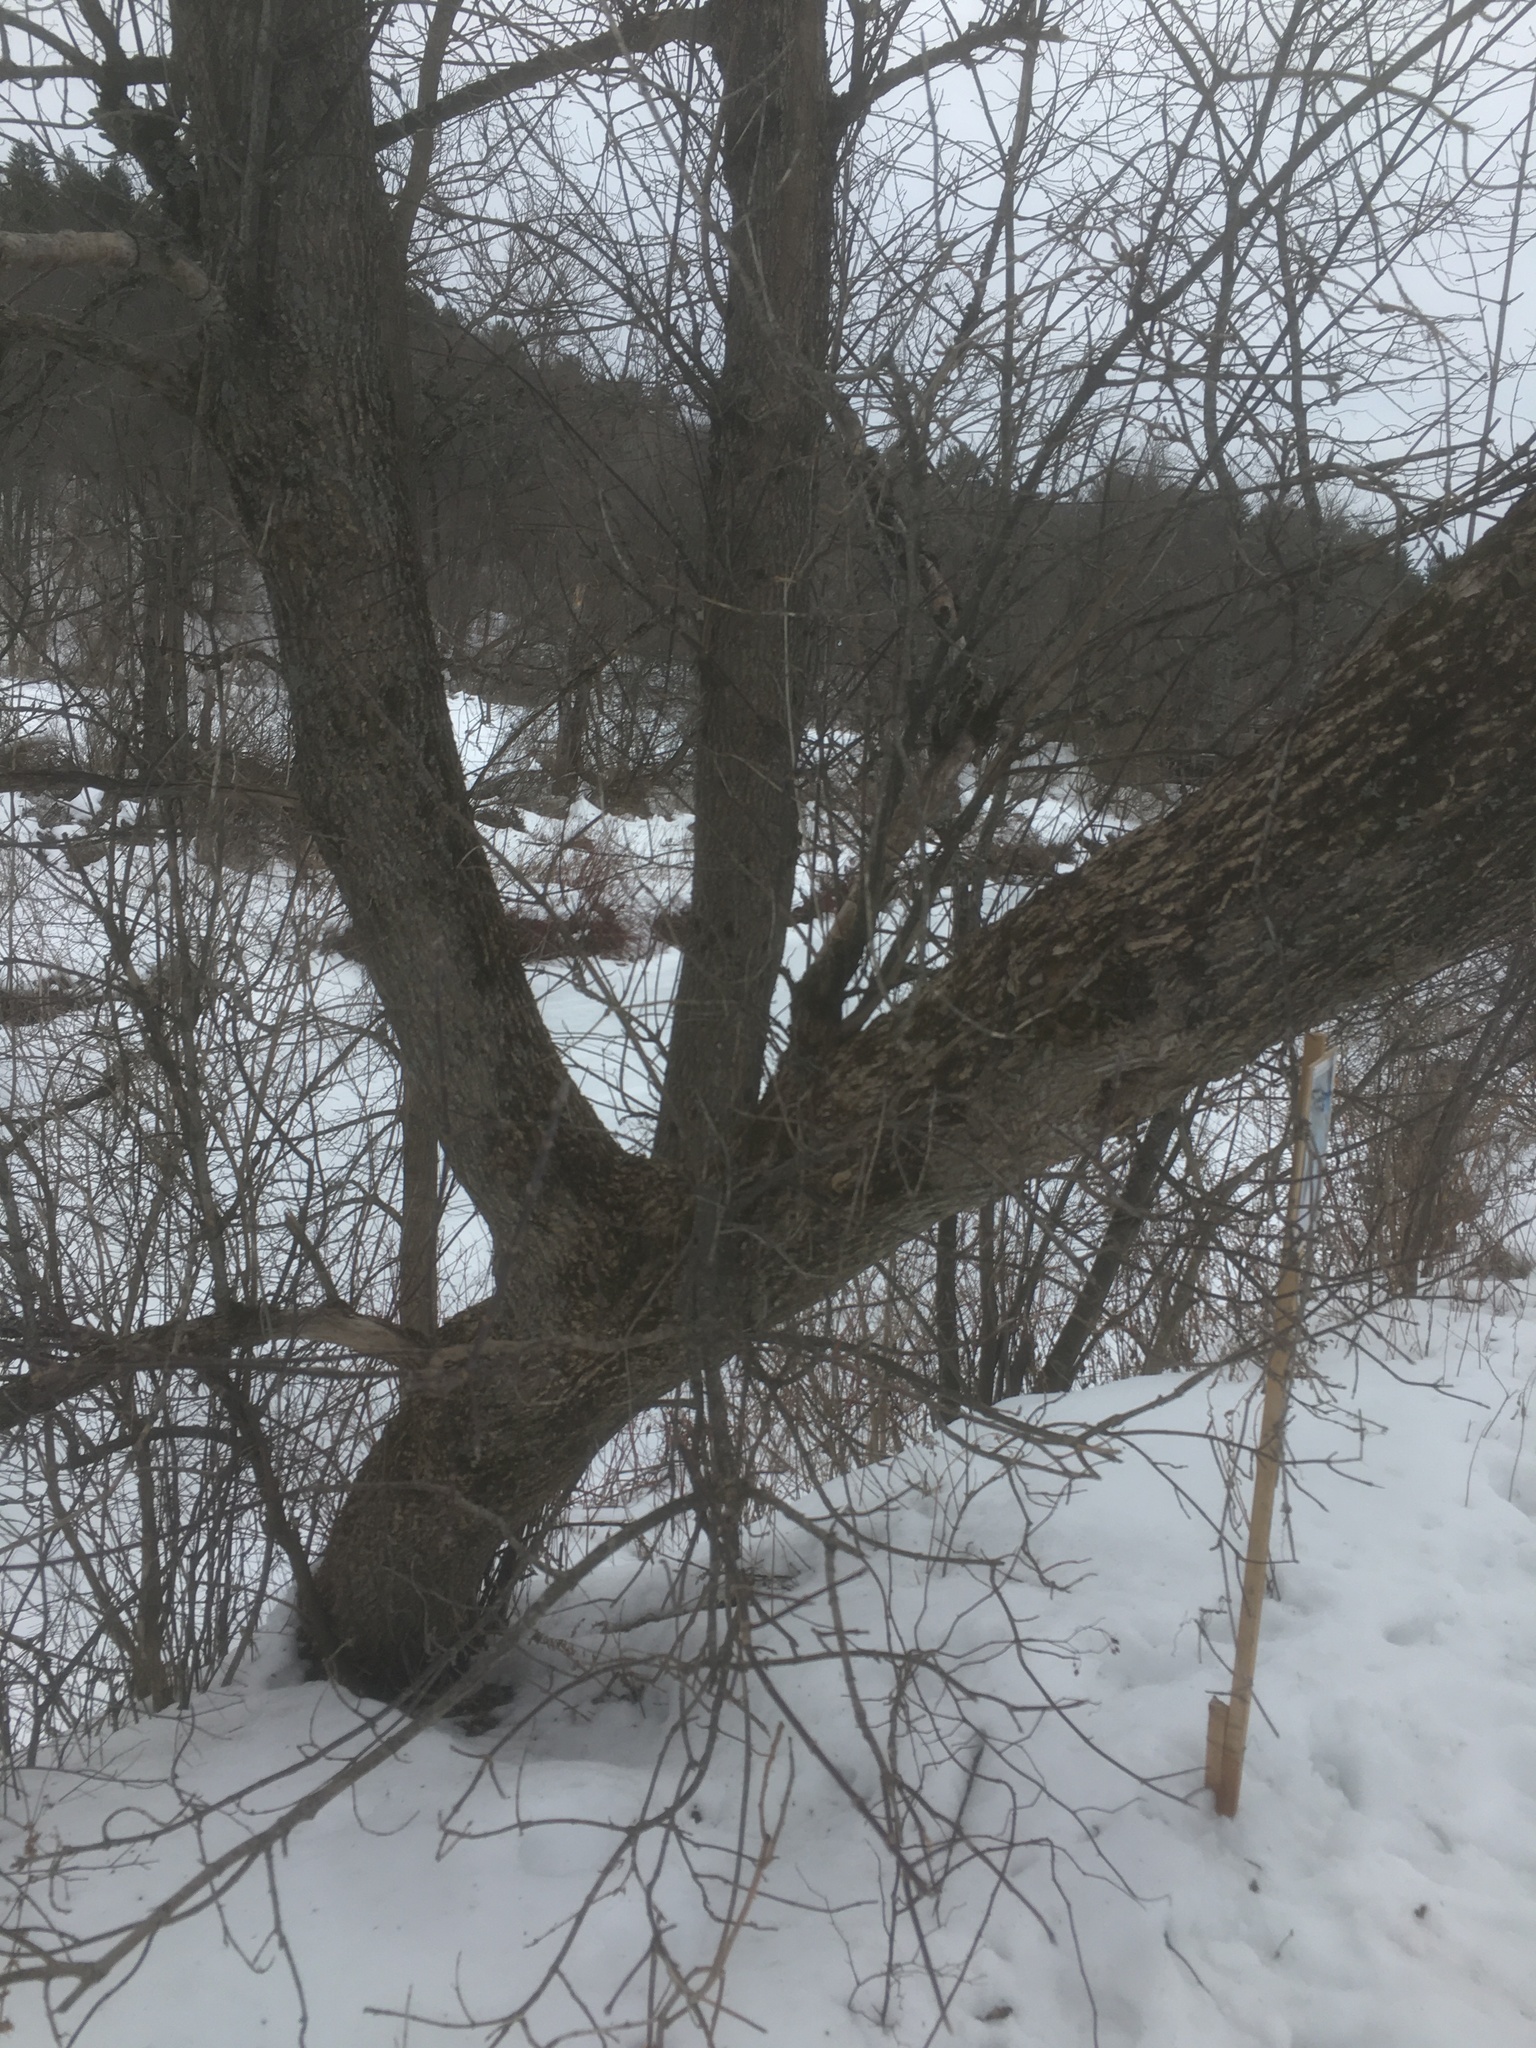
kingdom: Plantae
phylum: Tracheophyta
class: Magnoliopsida
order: Sapindales
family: Sapindaceae
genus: Acer
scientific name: Acer negundo
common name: Ashleaf maple
